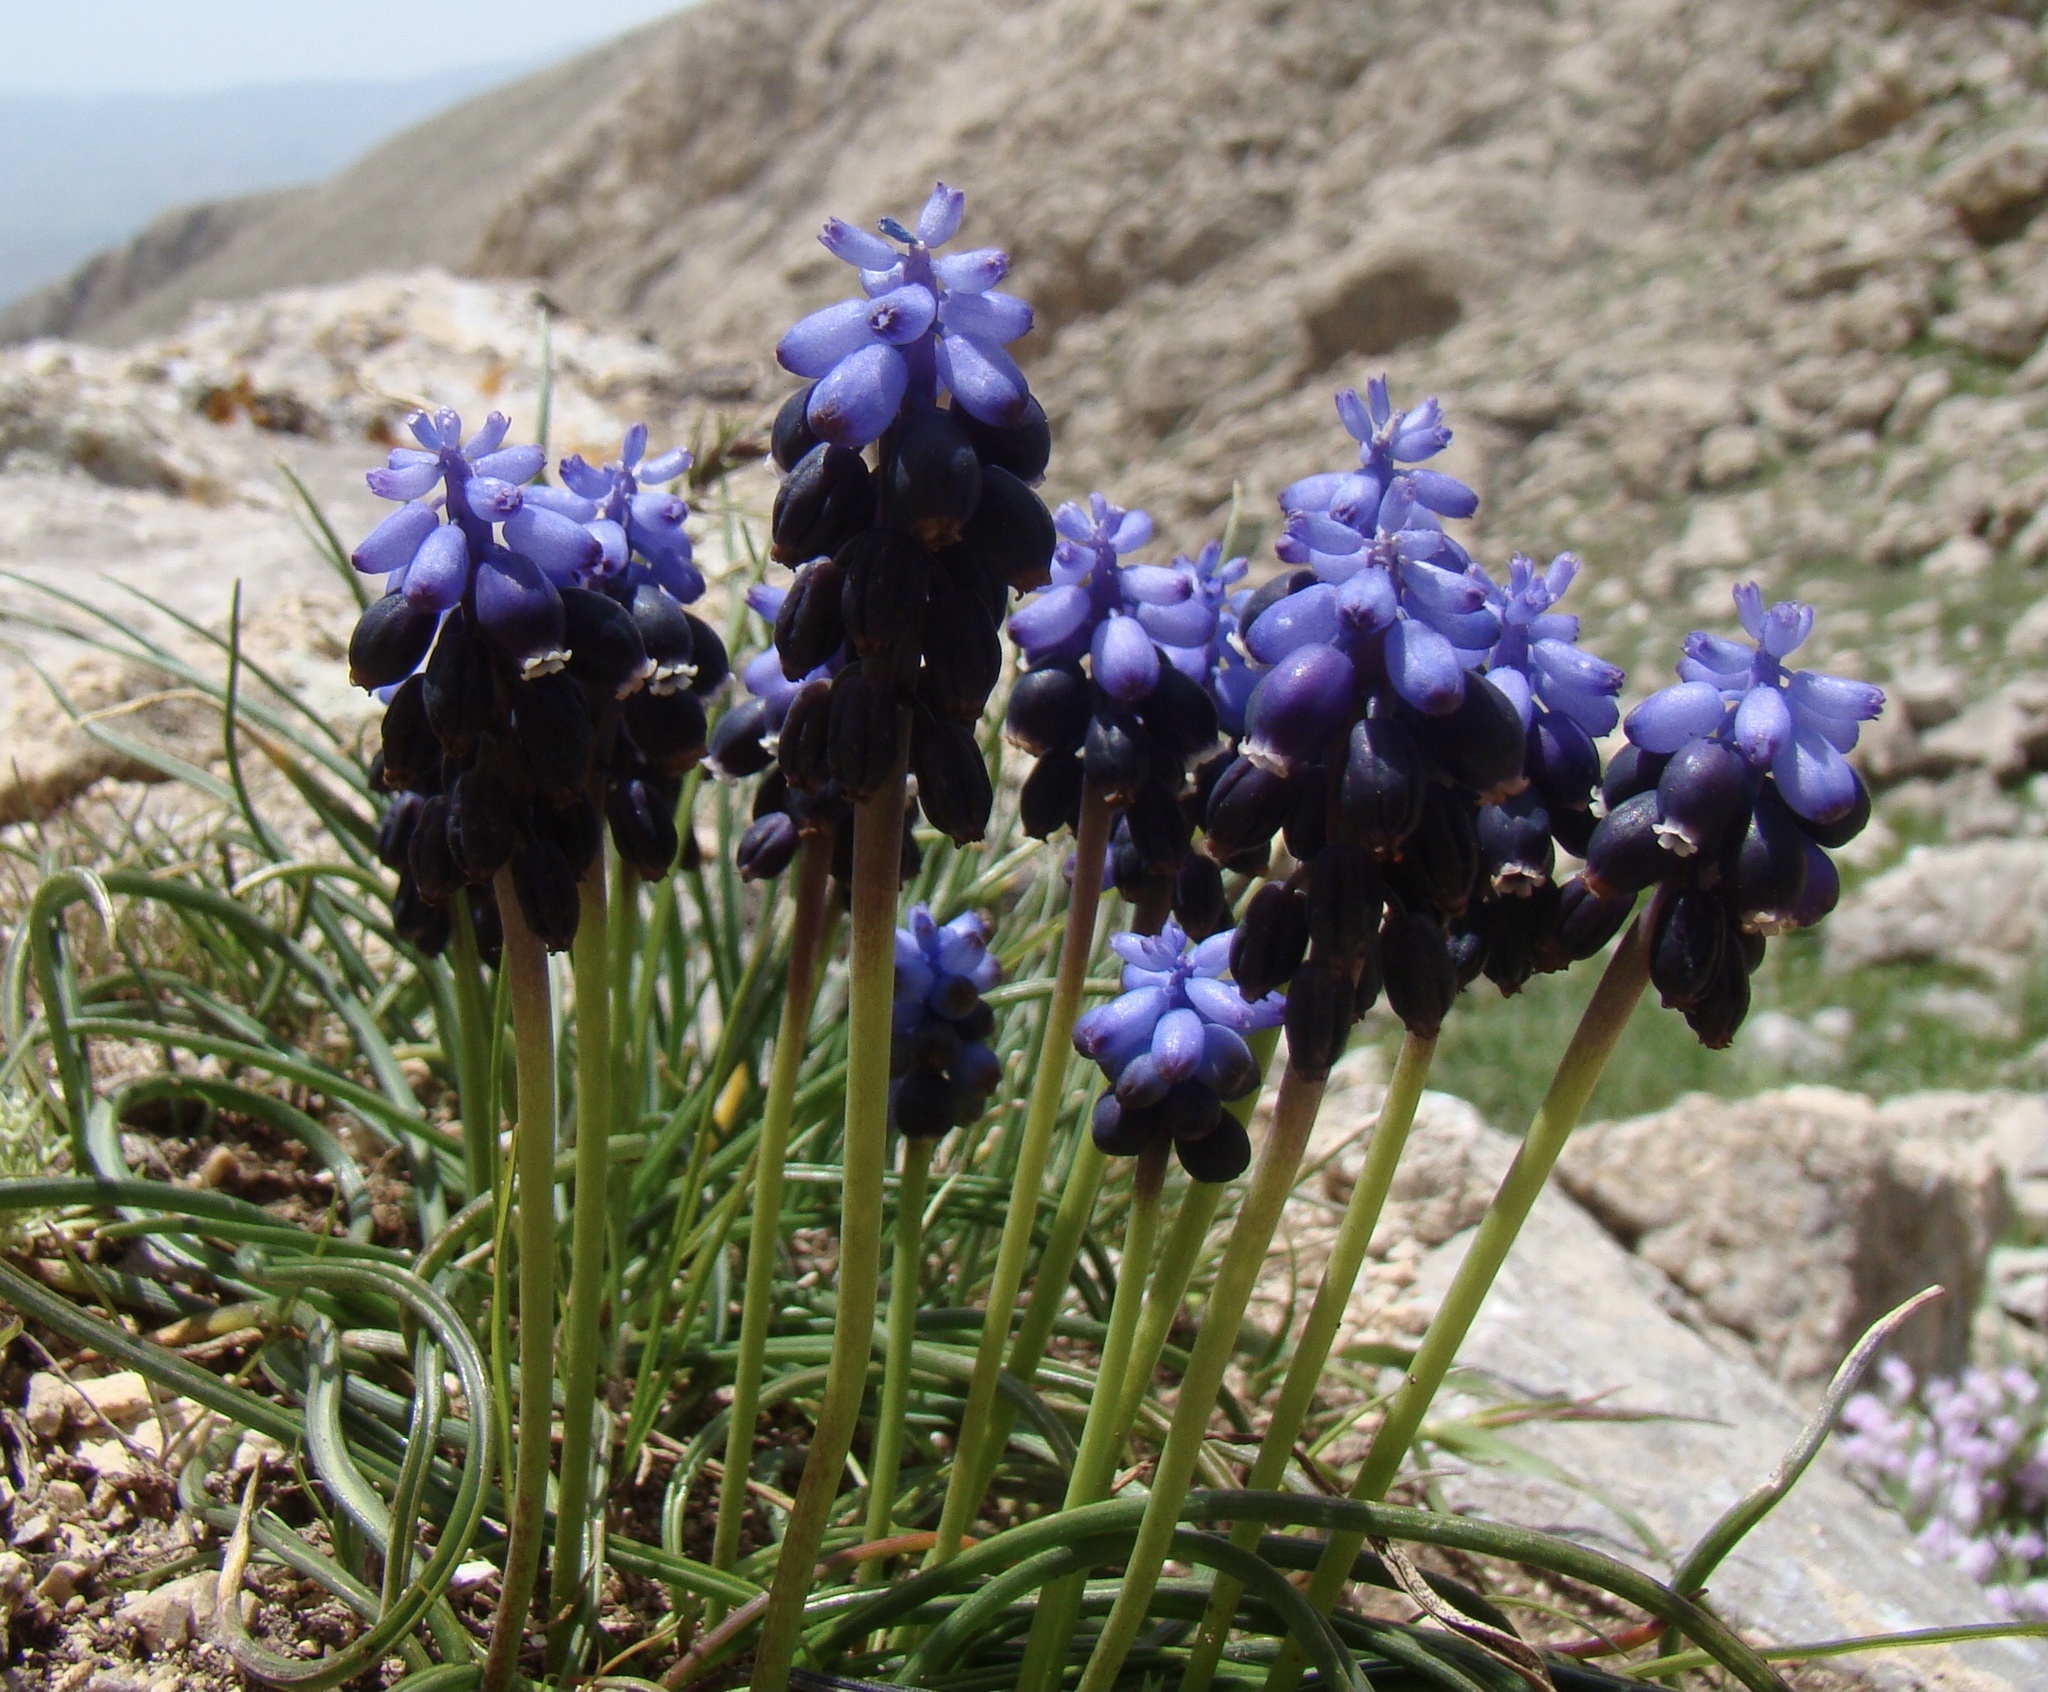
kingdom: Plantae
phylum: Tracheophyta
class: Liliopsida
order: Asparagales
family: Asparagaceae
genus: Muscari
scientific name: Muscari neglectum
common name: Grape-hyacinth
